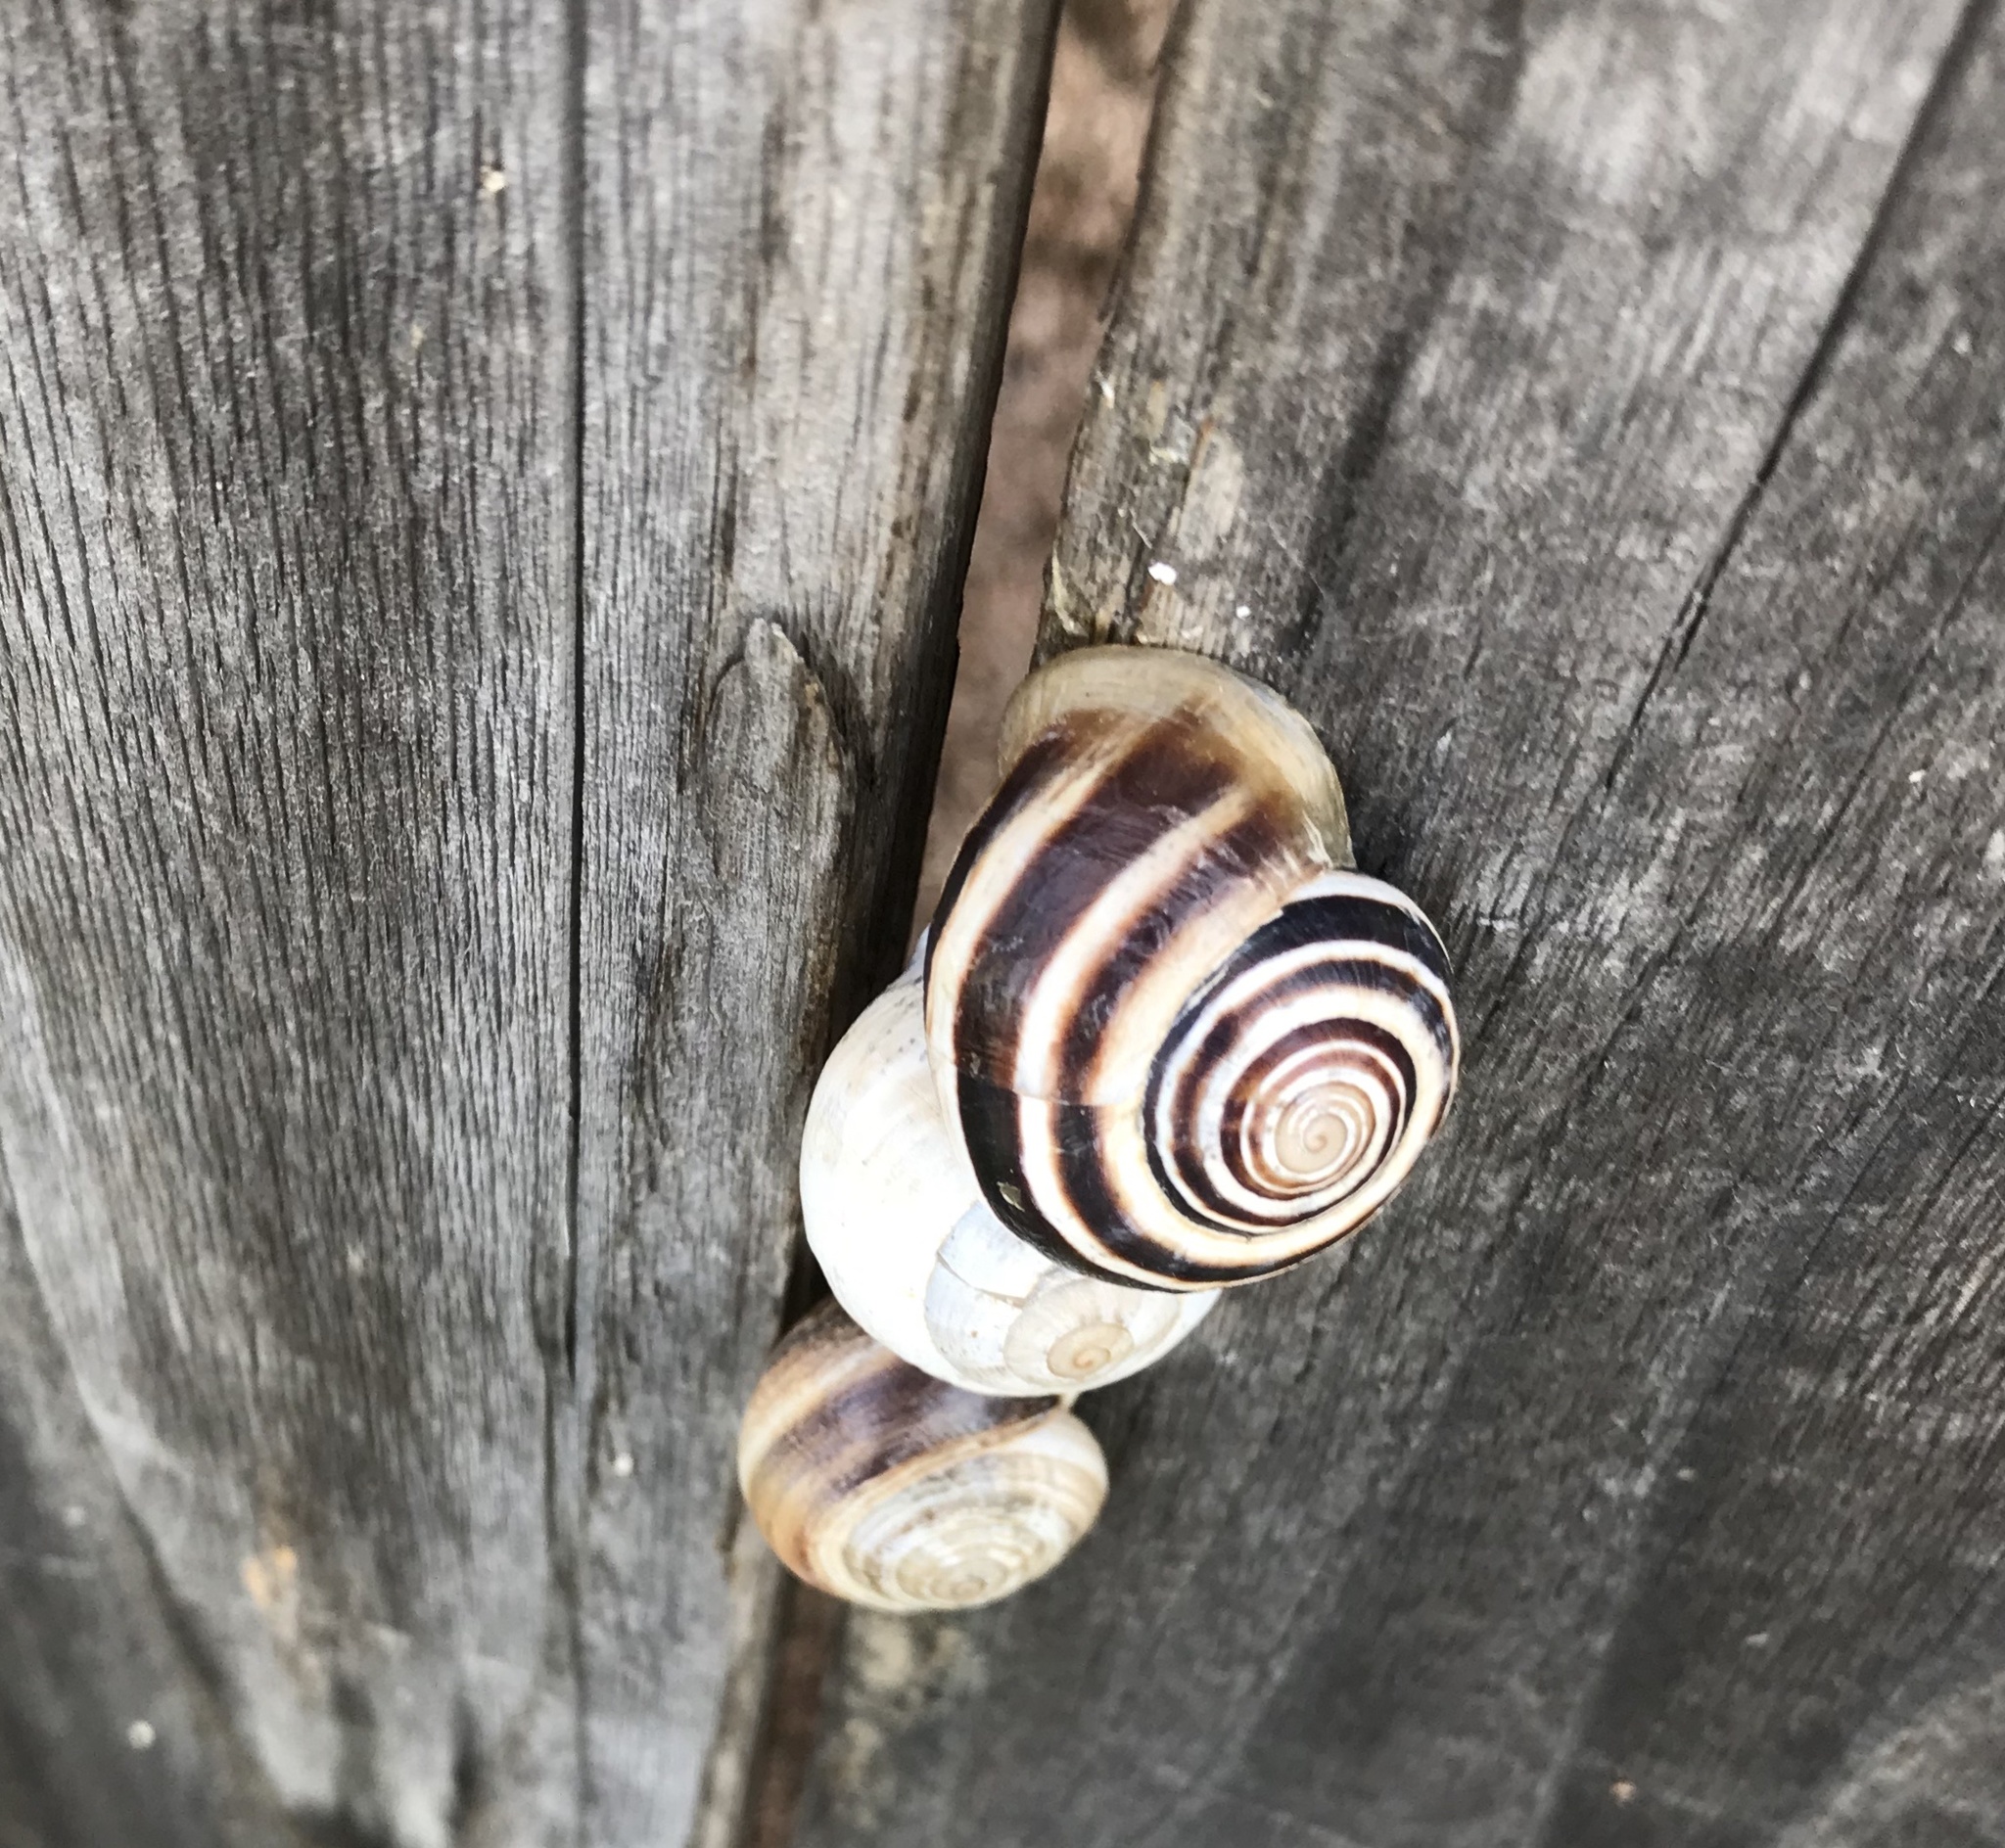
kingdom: Animalia
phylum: Mollusca
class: Gastropoda
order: Stylommatophora
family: Helicidae
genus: Otala
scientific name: Otala lactea
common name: Milk snail
